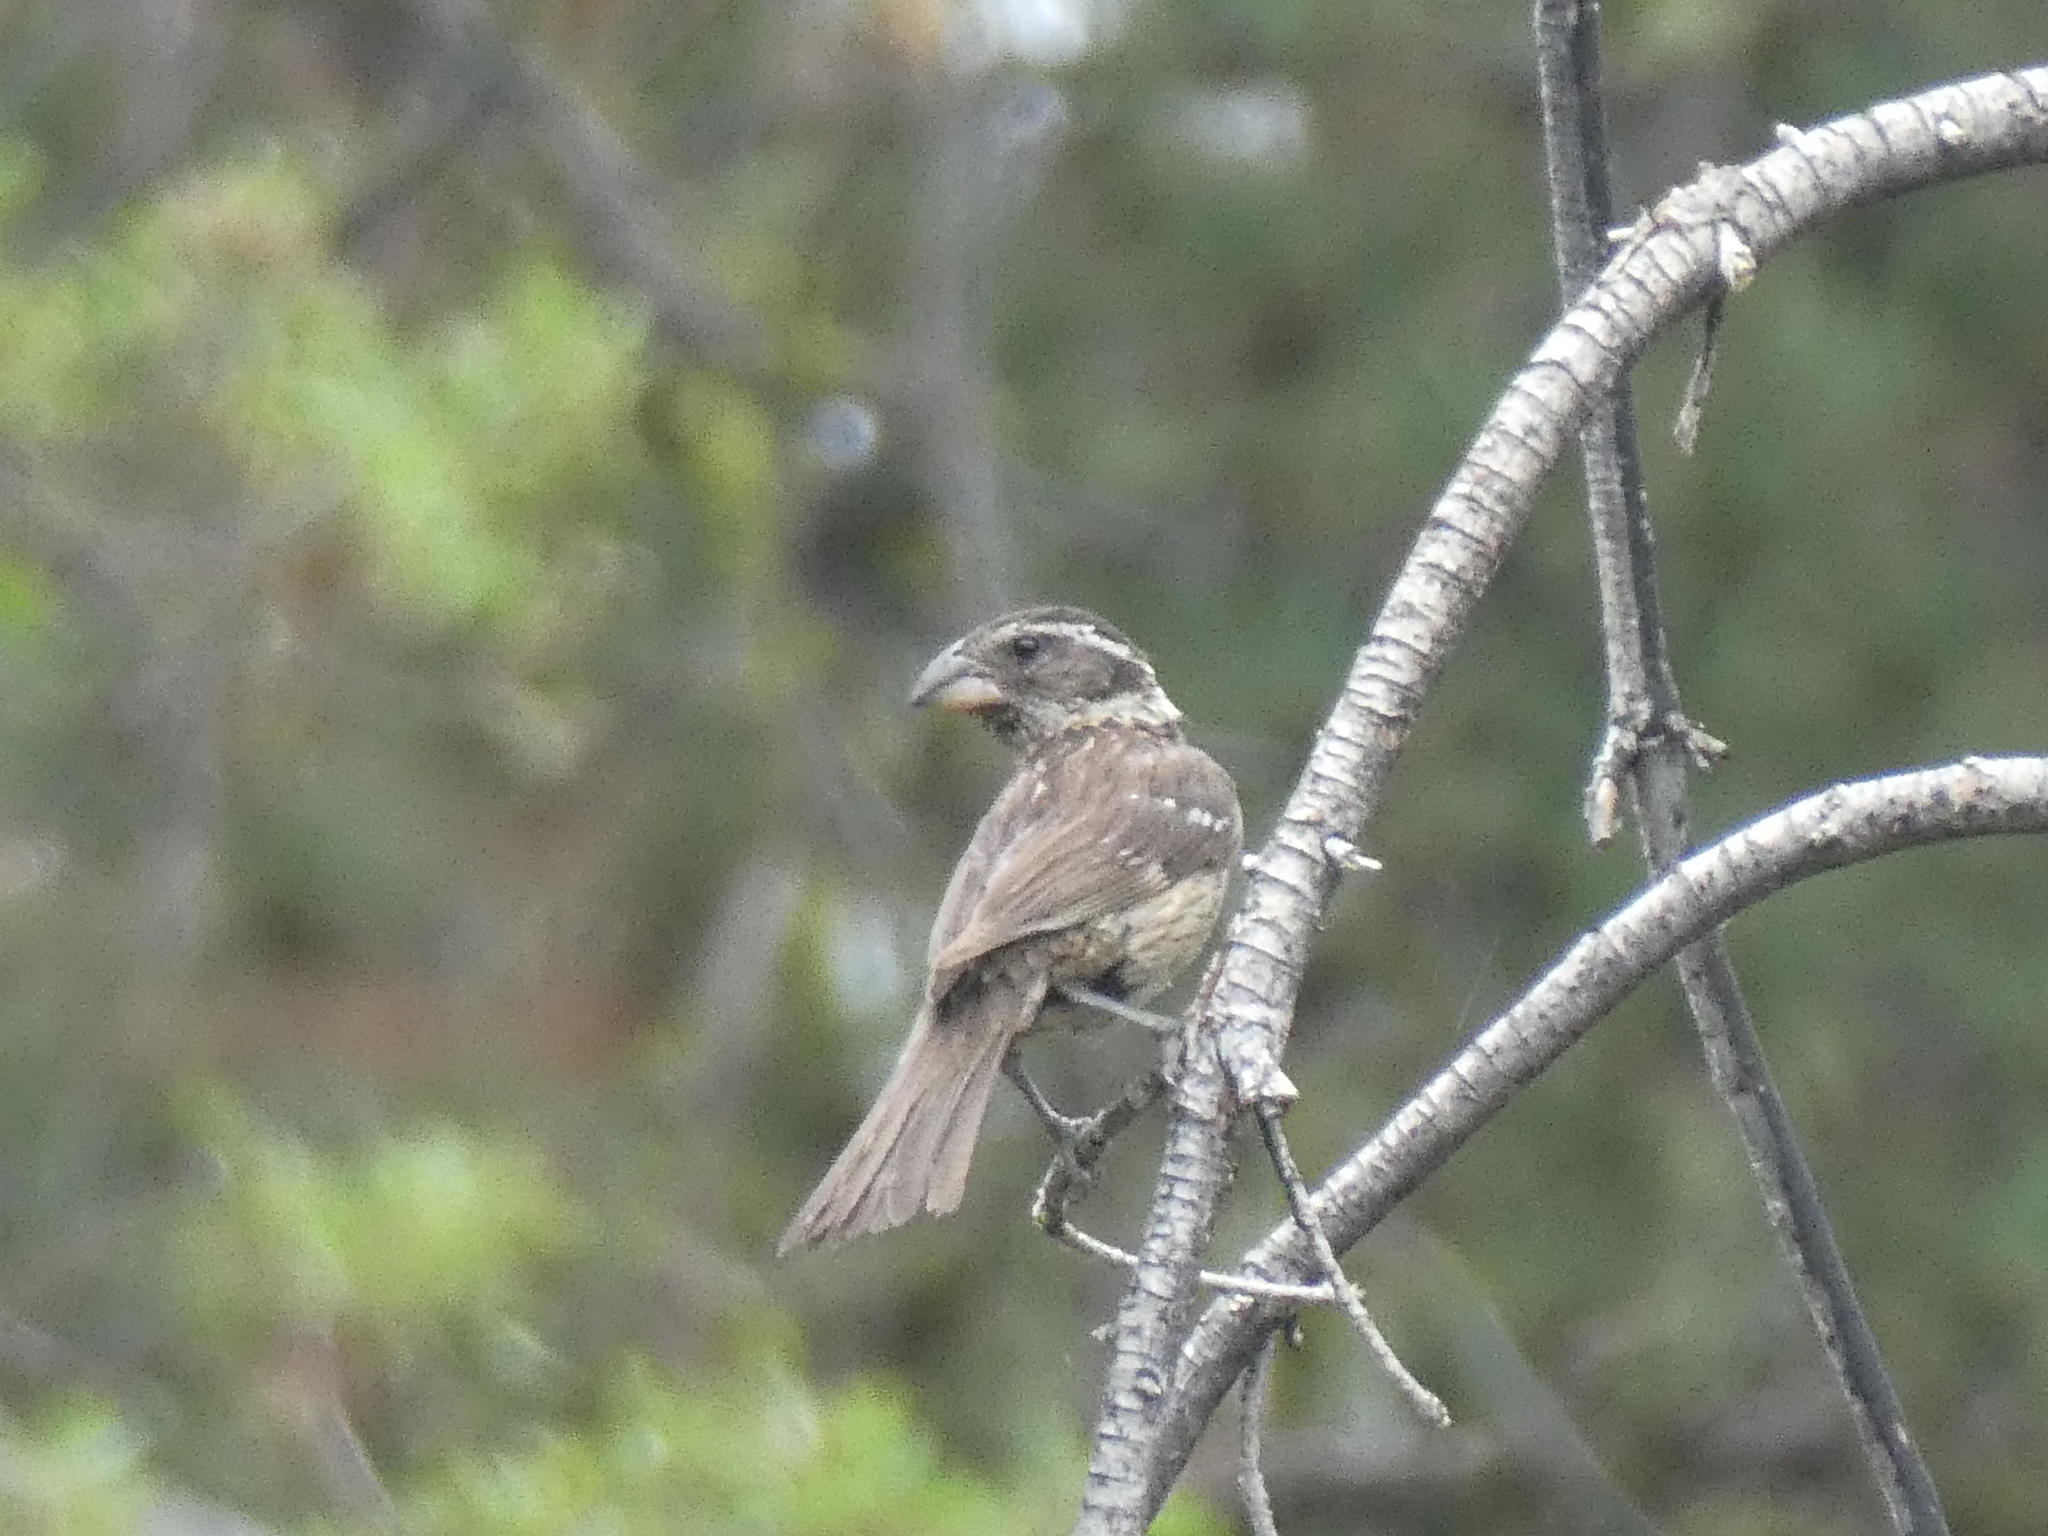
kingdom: Animalia
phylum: Chordata
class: Aves
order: Passeriformes
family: Cardinalidae
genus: Pheucticus
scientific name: Pheucticus melanocephalus
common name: Black-headed grosbeak
